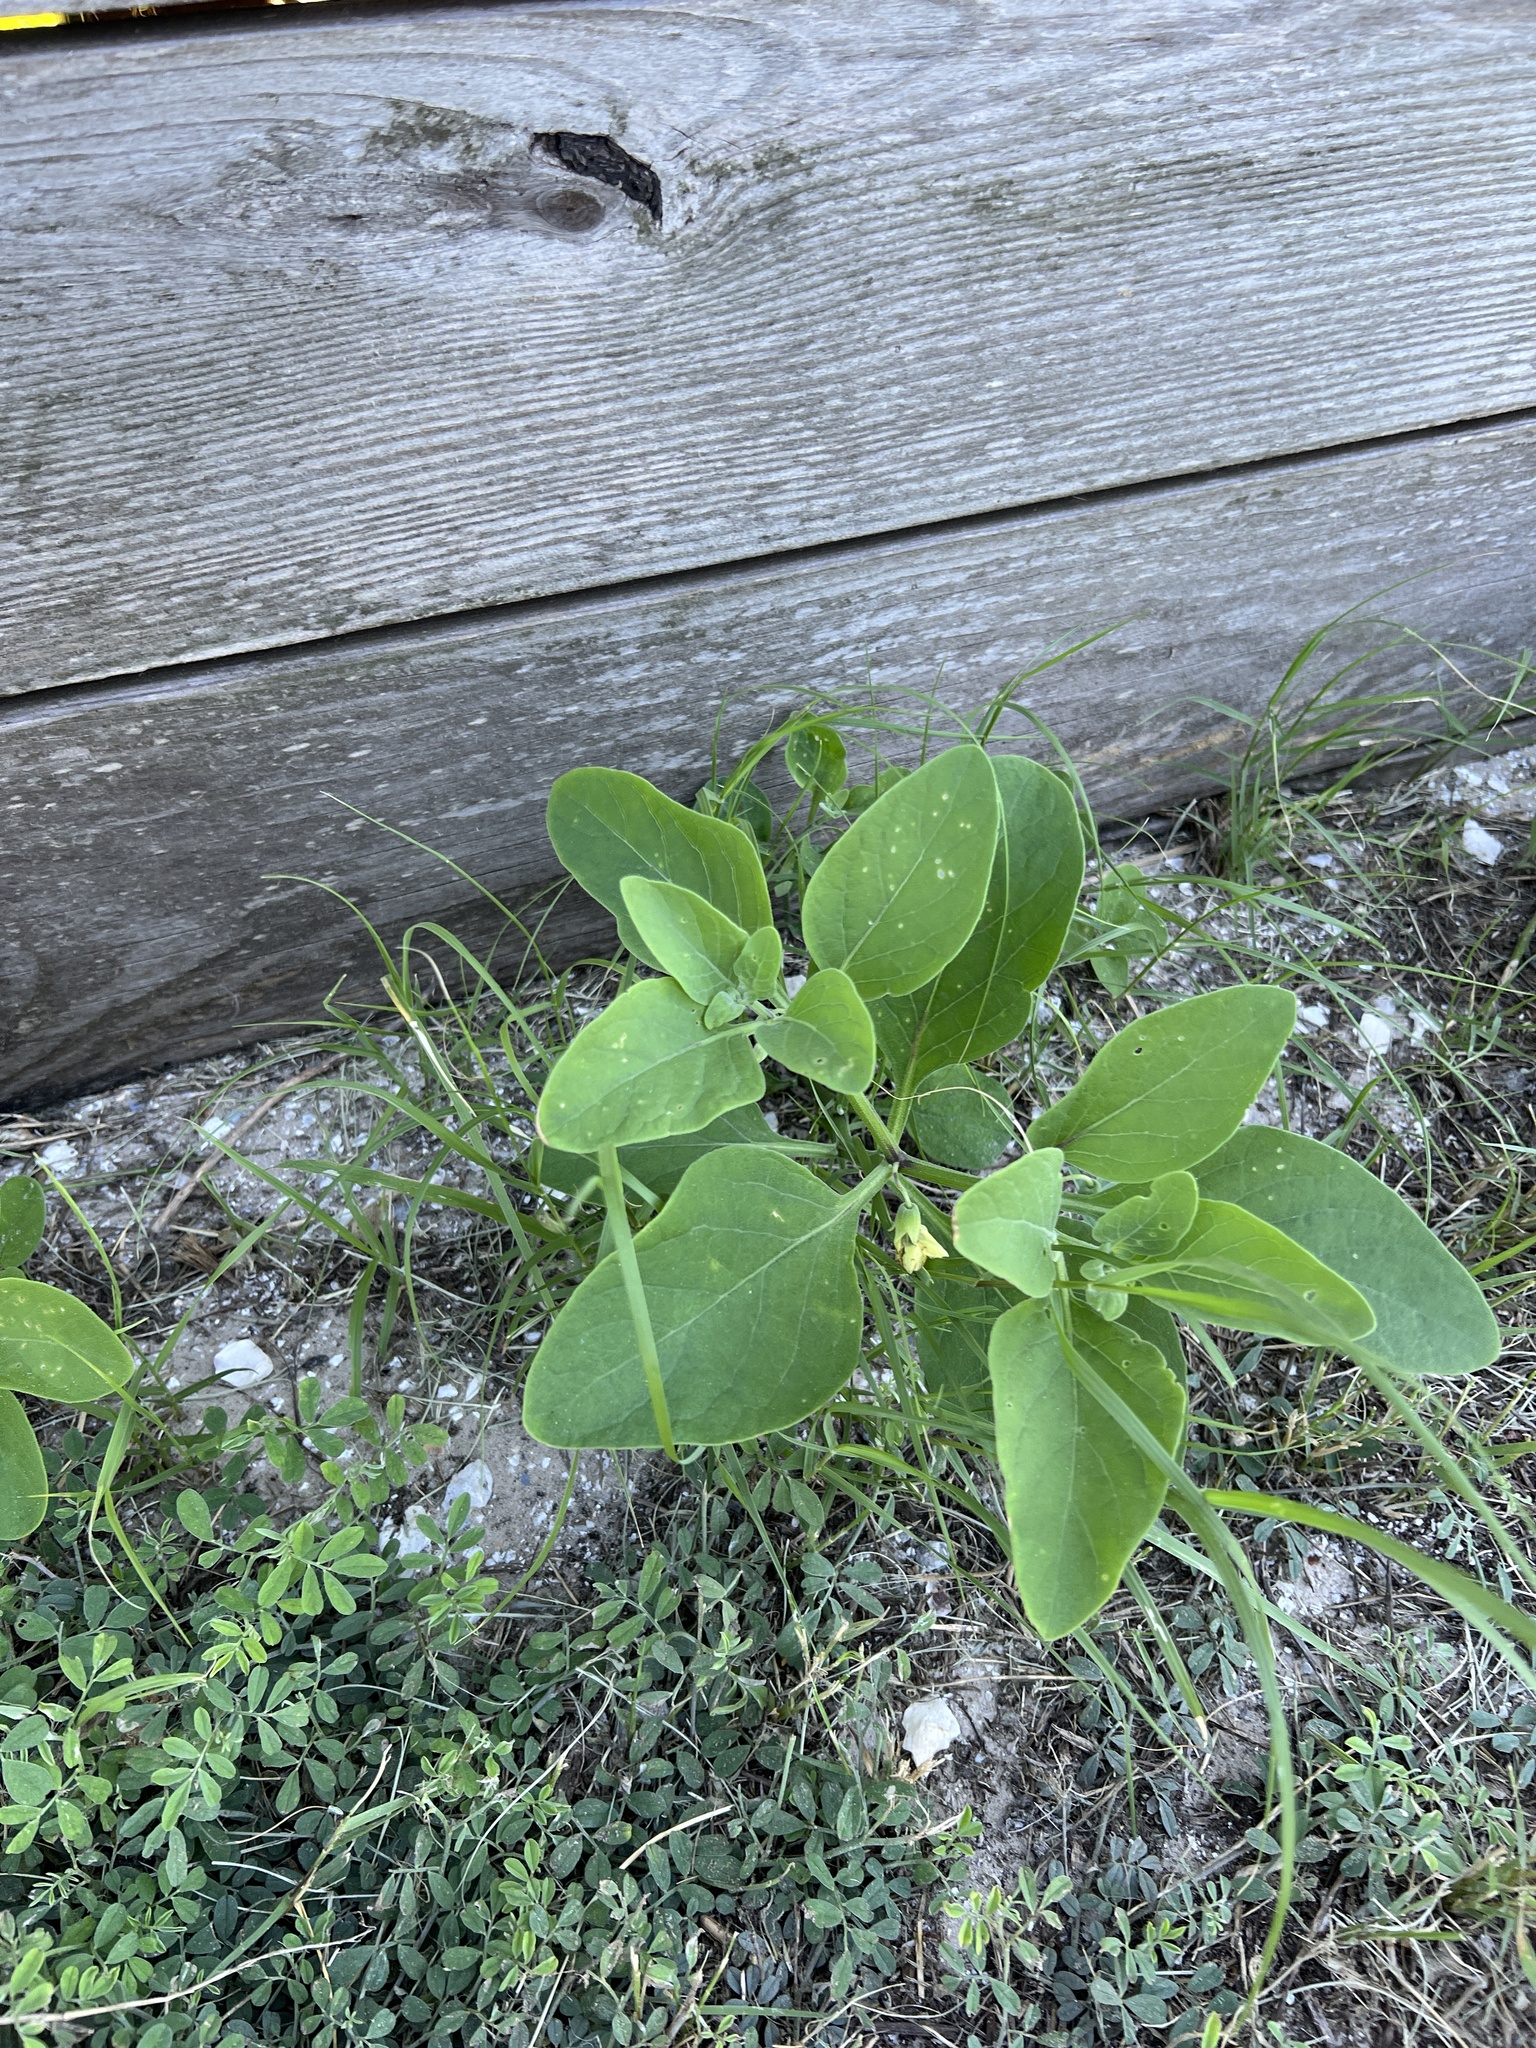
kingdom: Plantae
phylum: Tracheophyta
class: Magnoliopsida
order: Solanales
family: Solanaceae
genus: Physalis
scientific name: Physalis cinerascens
